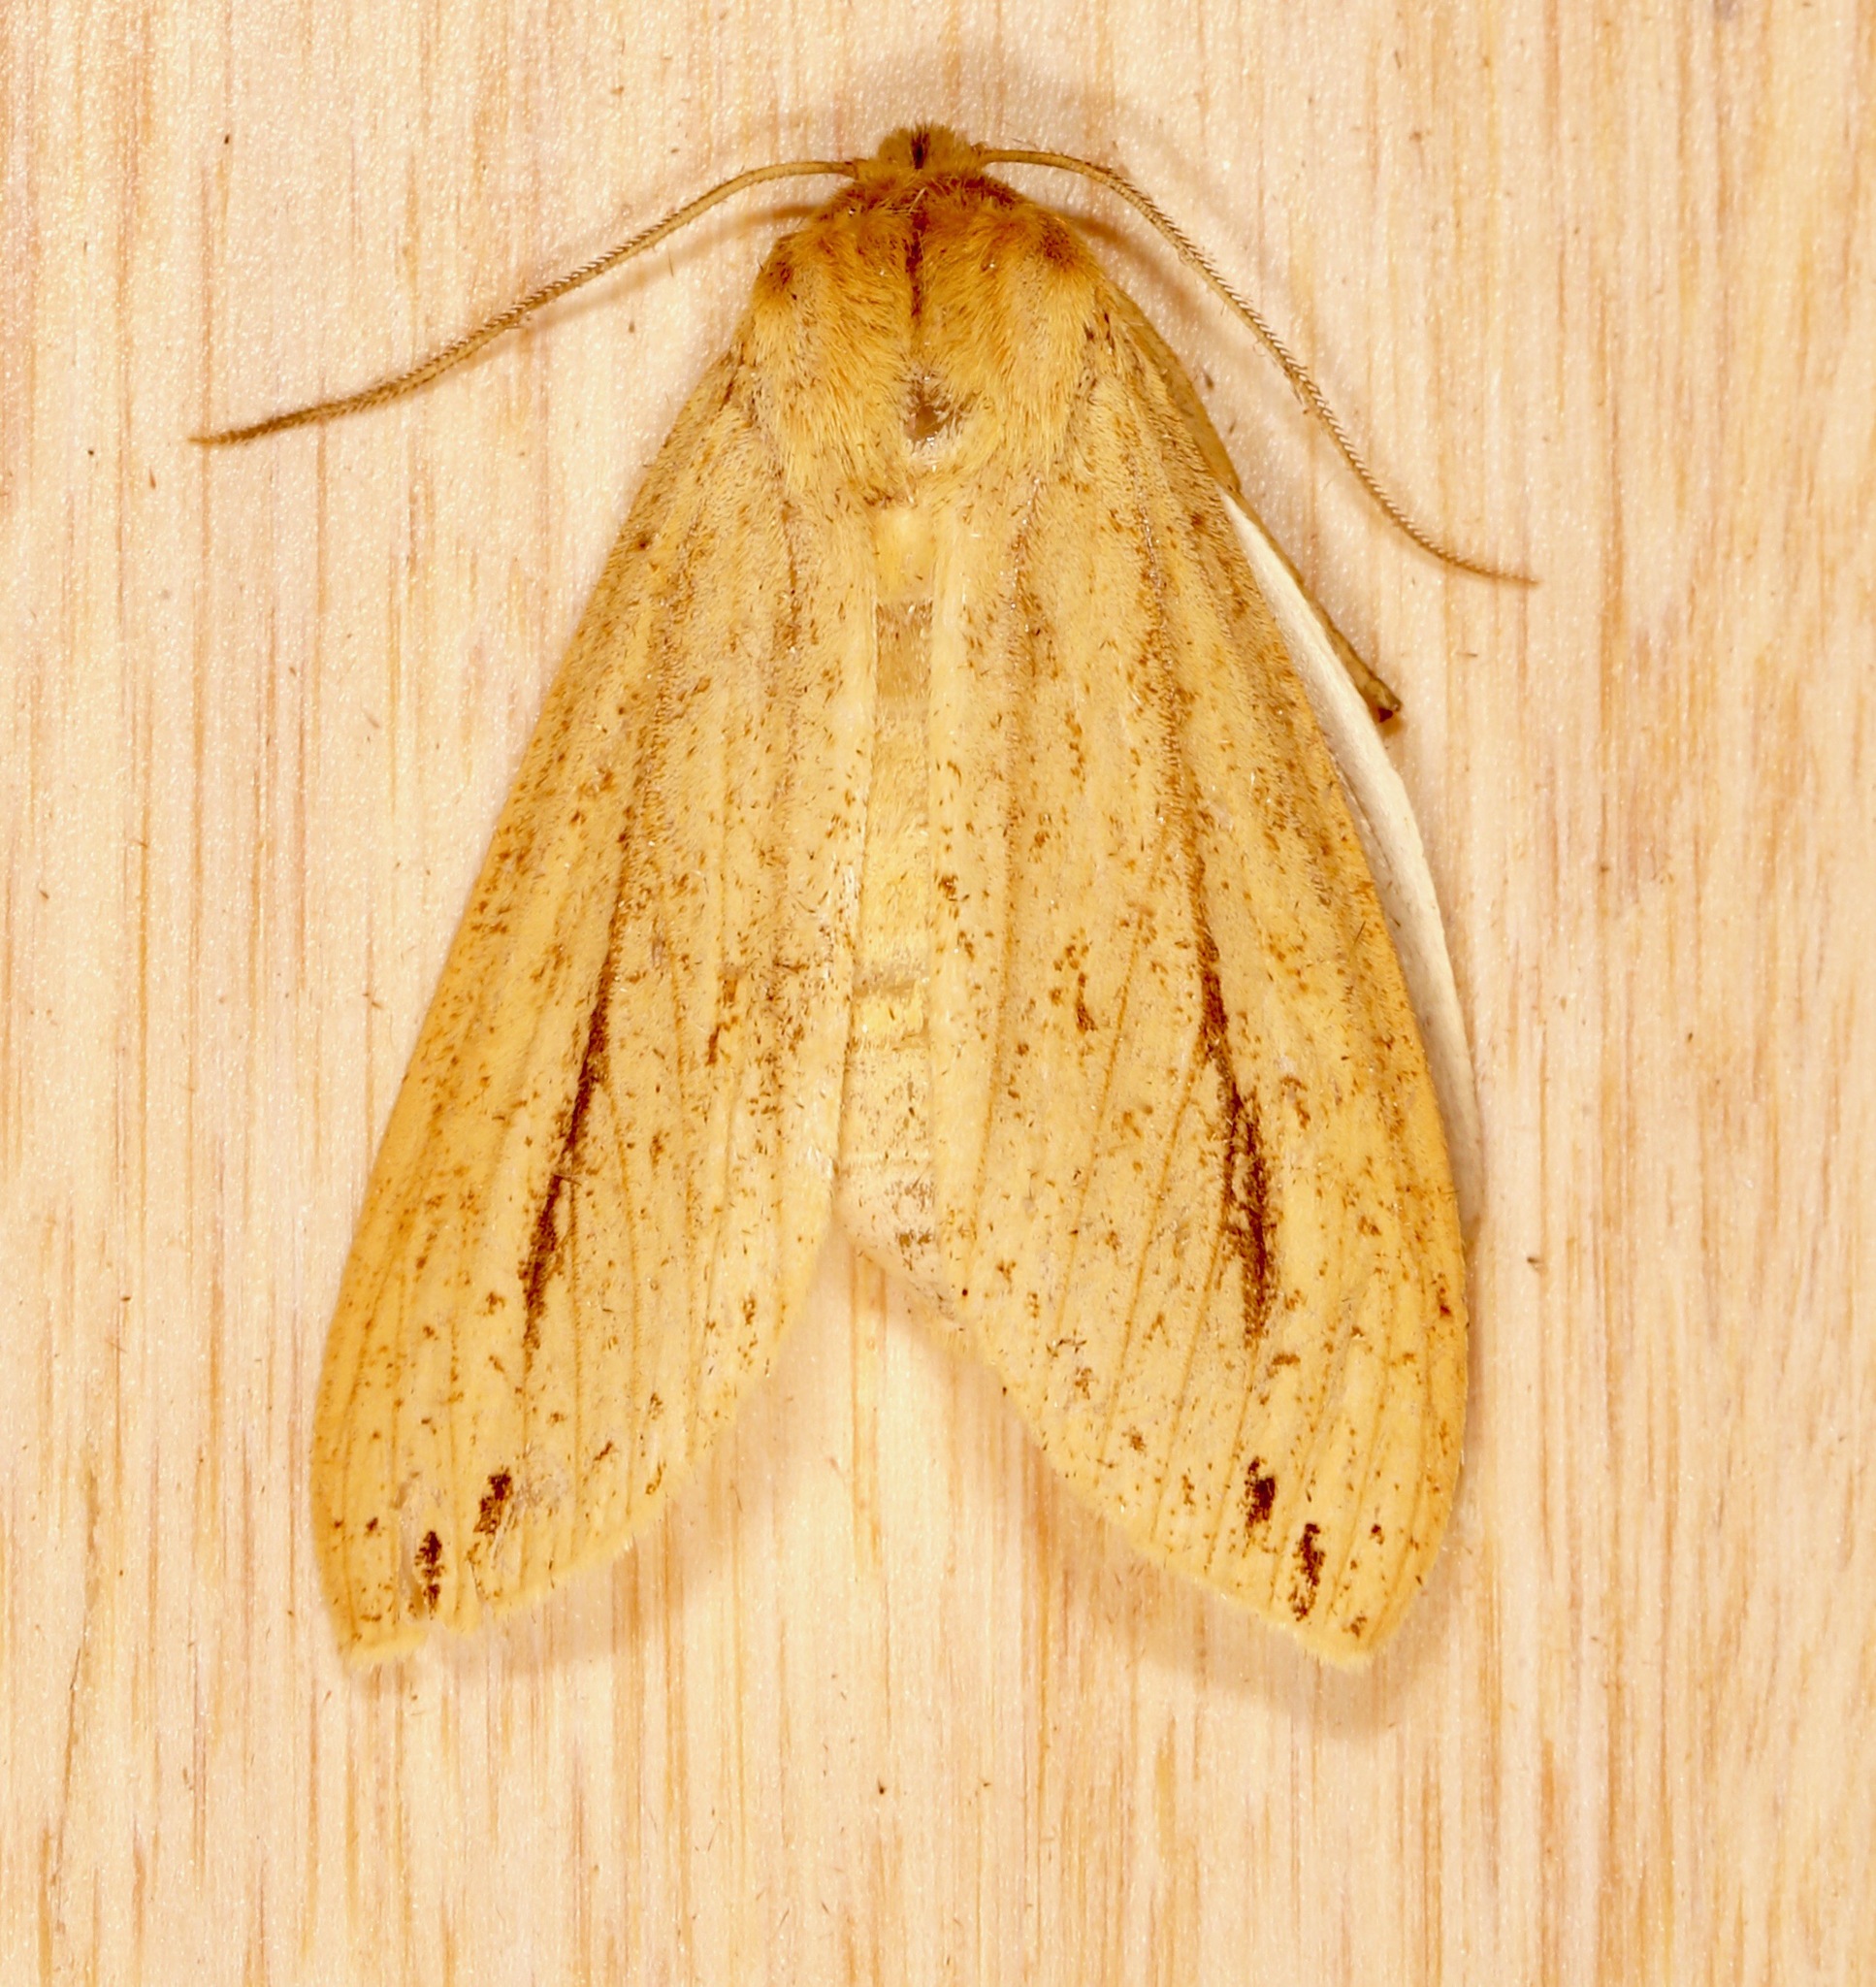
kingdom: Animalia
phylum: Arthropoda
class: Insecta
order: Lepidoptera
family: Erebidae
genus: Leucanopsis
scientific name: Leucanopsis longa
